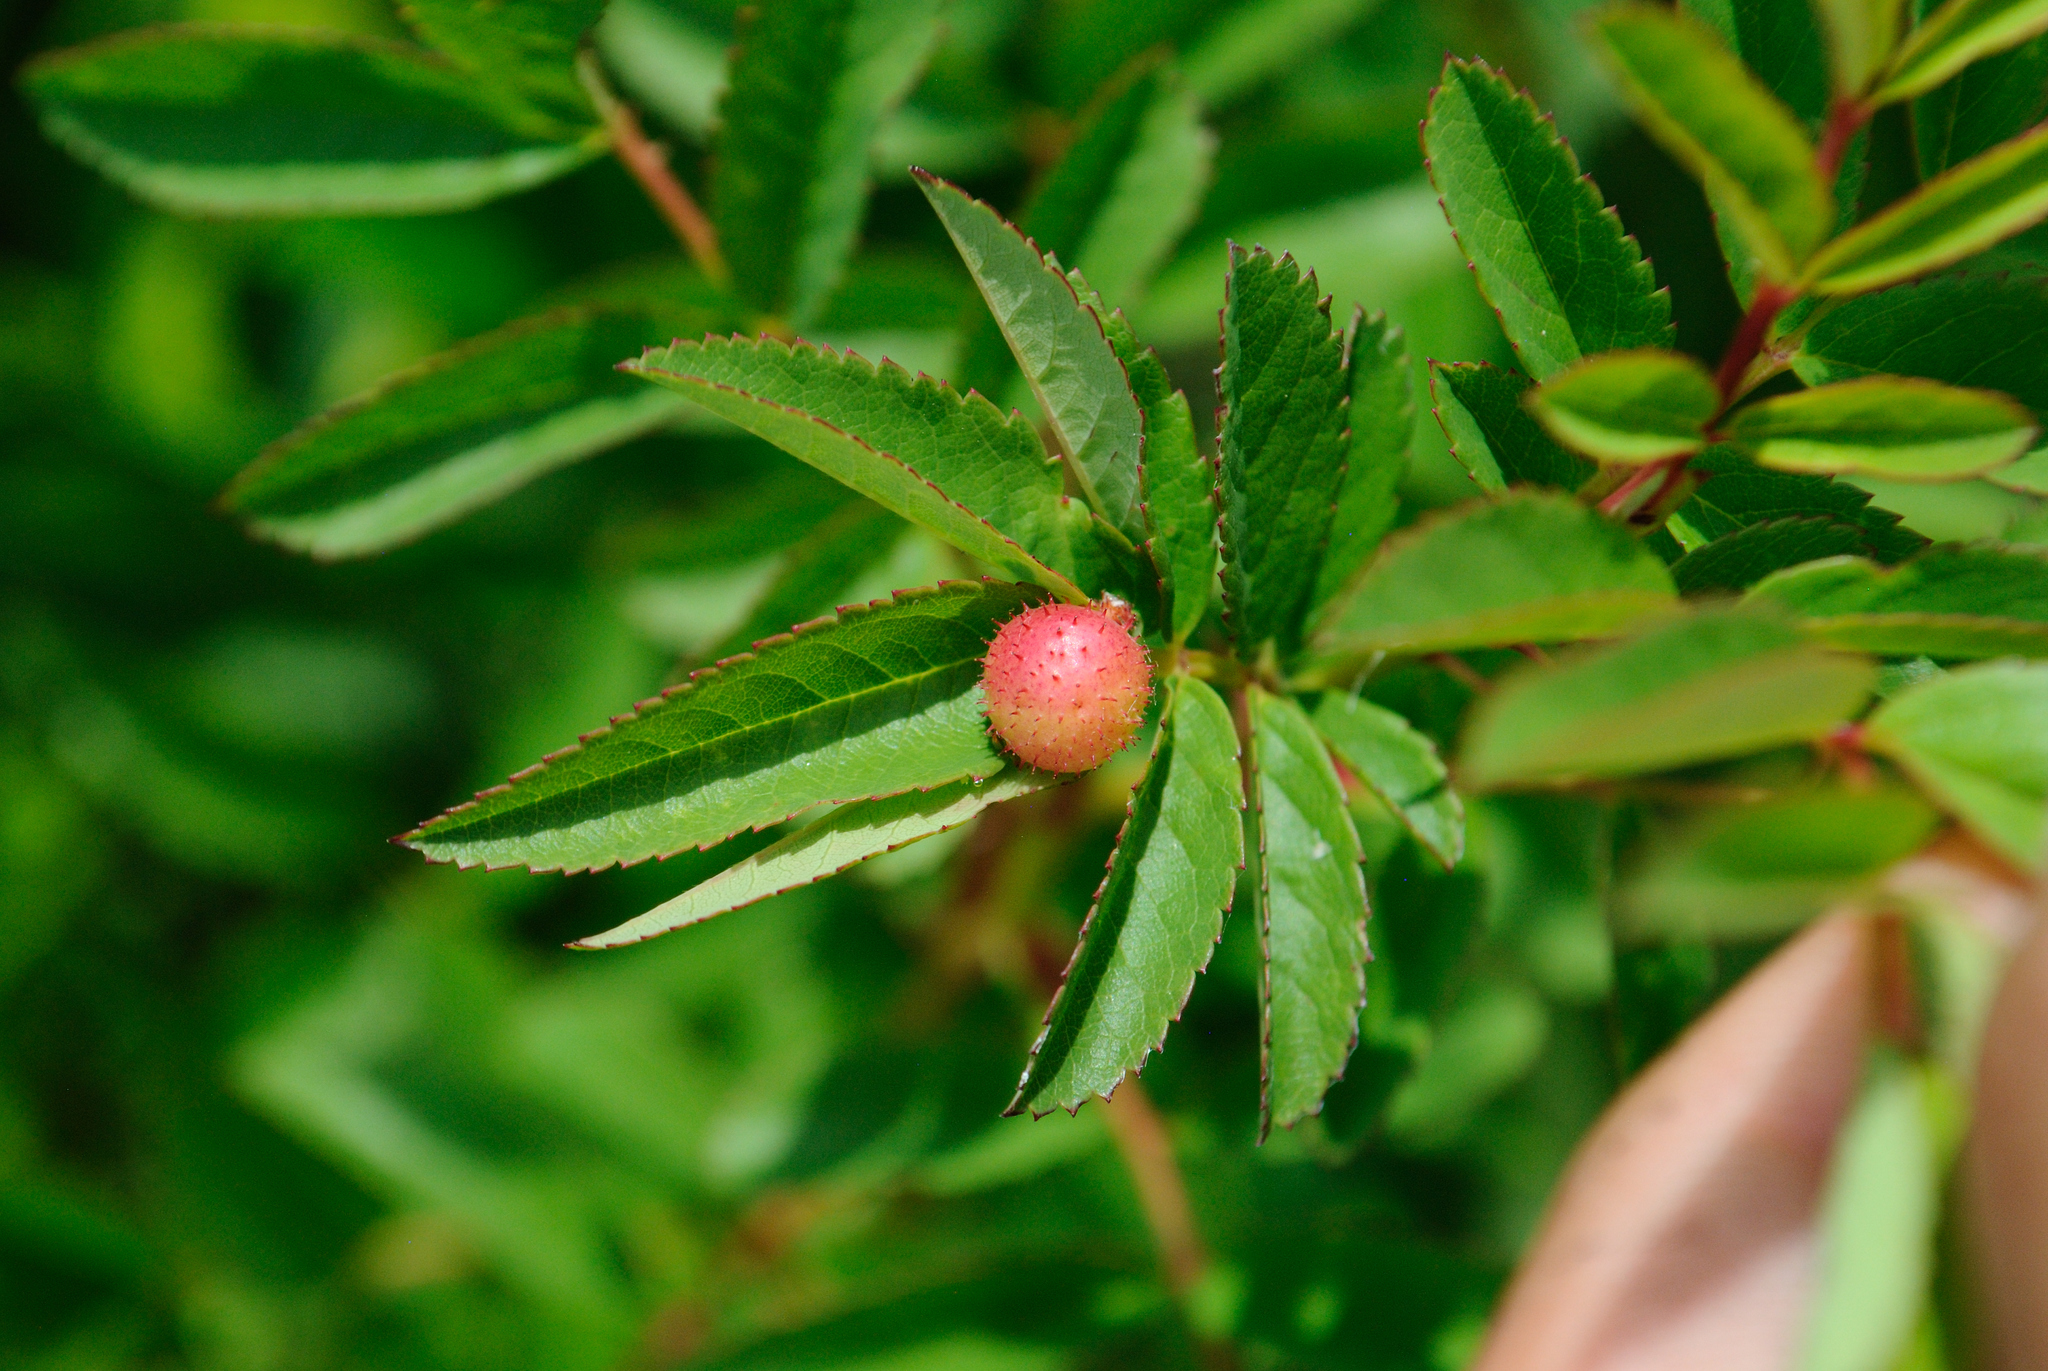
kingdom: Animalia
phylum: Arthropoda
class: Insecta
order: Hymenoptera
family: Cynipidae
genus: Diplolepis
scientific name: Diplolepis polita
